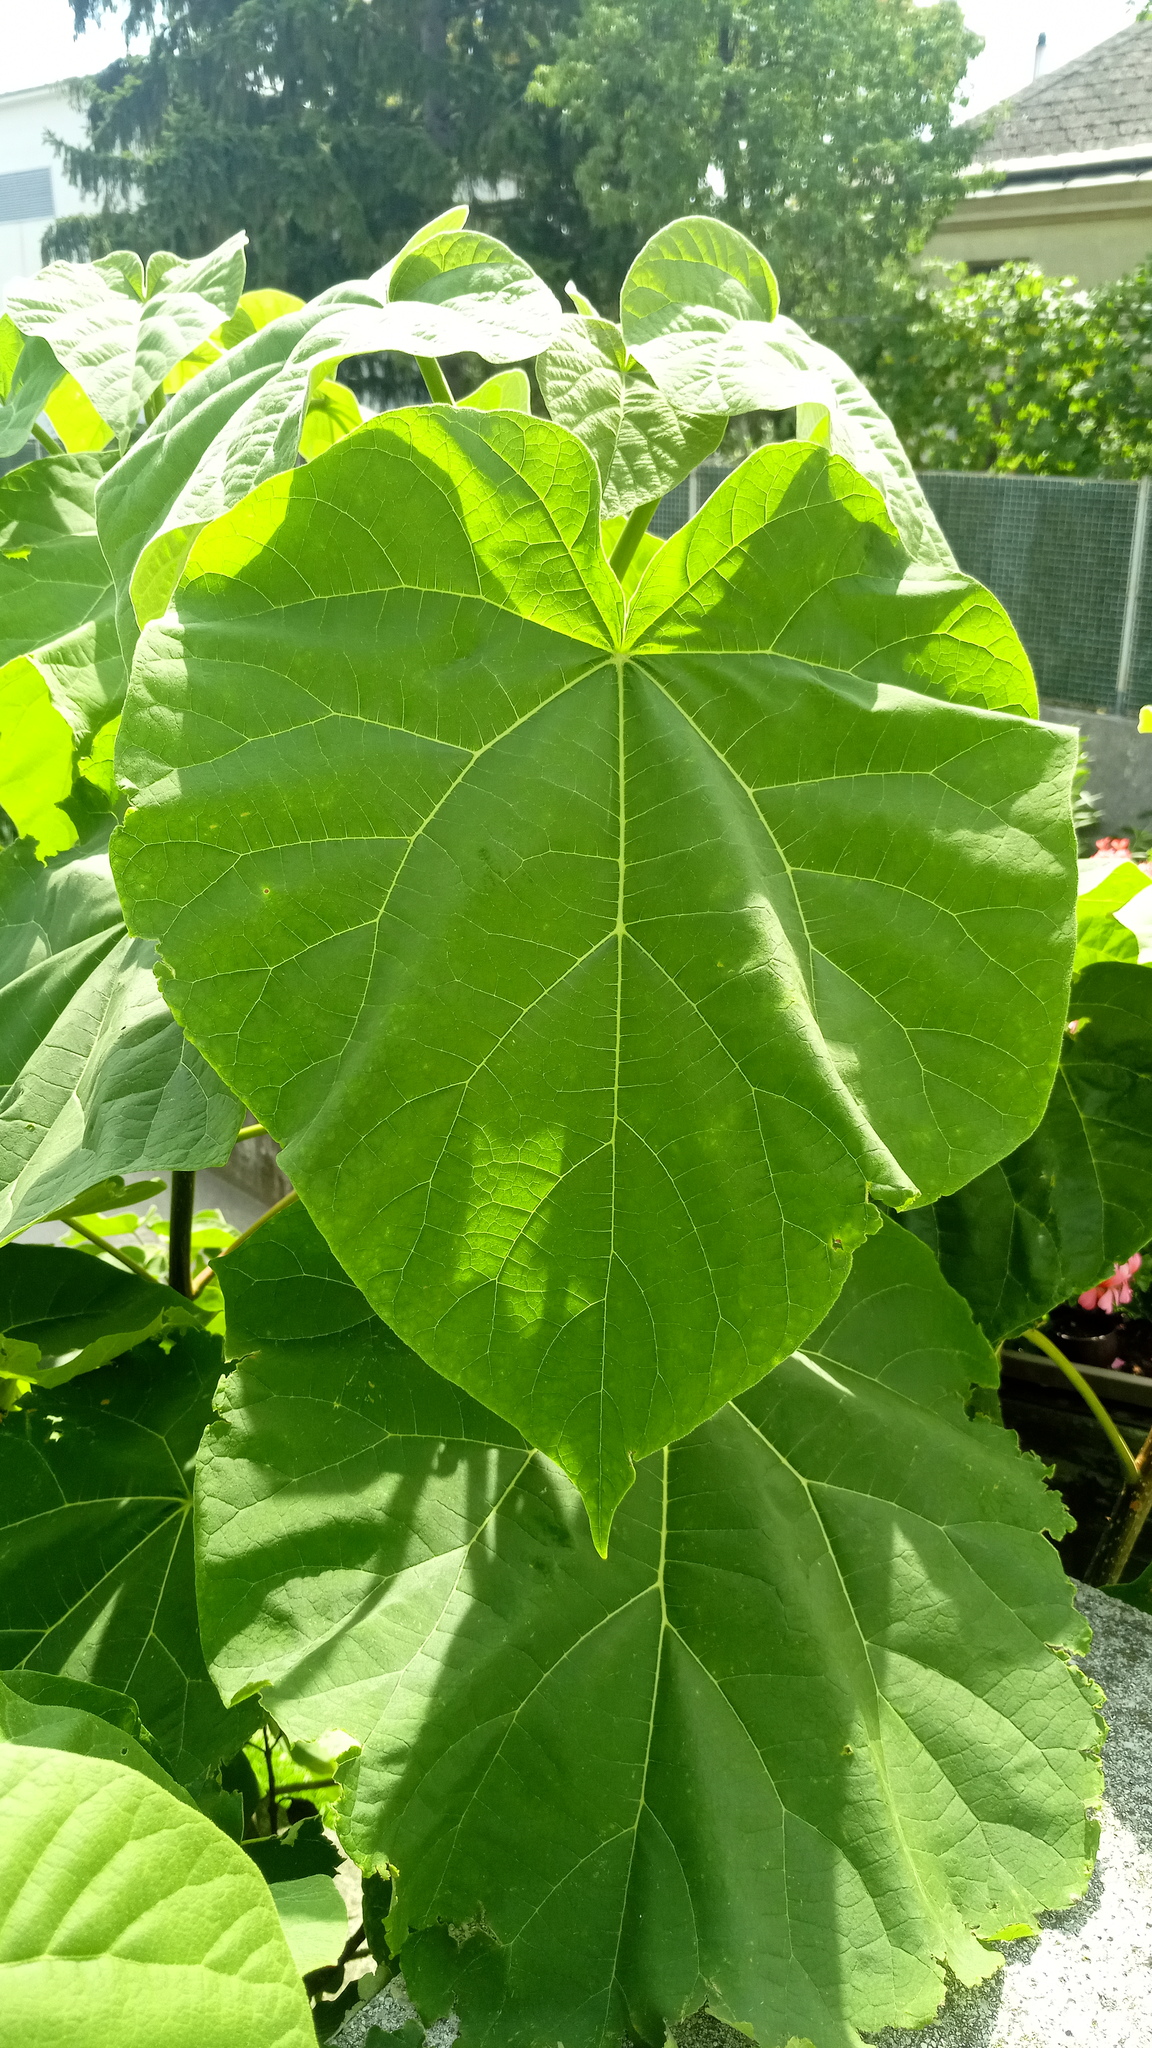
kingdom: Plantae
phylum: Tracheophyta
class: Magnoliopsida
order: Lamiales
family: Paulowniaceae
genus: Paulownia
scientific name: Paulownia tomentosa
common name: Foxglove-tree
